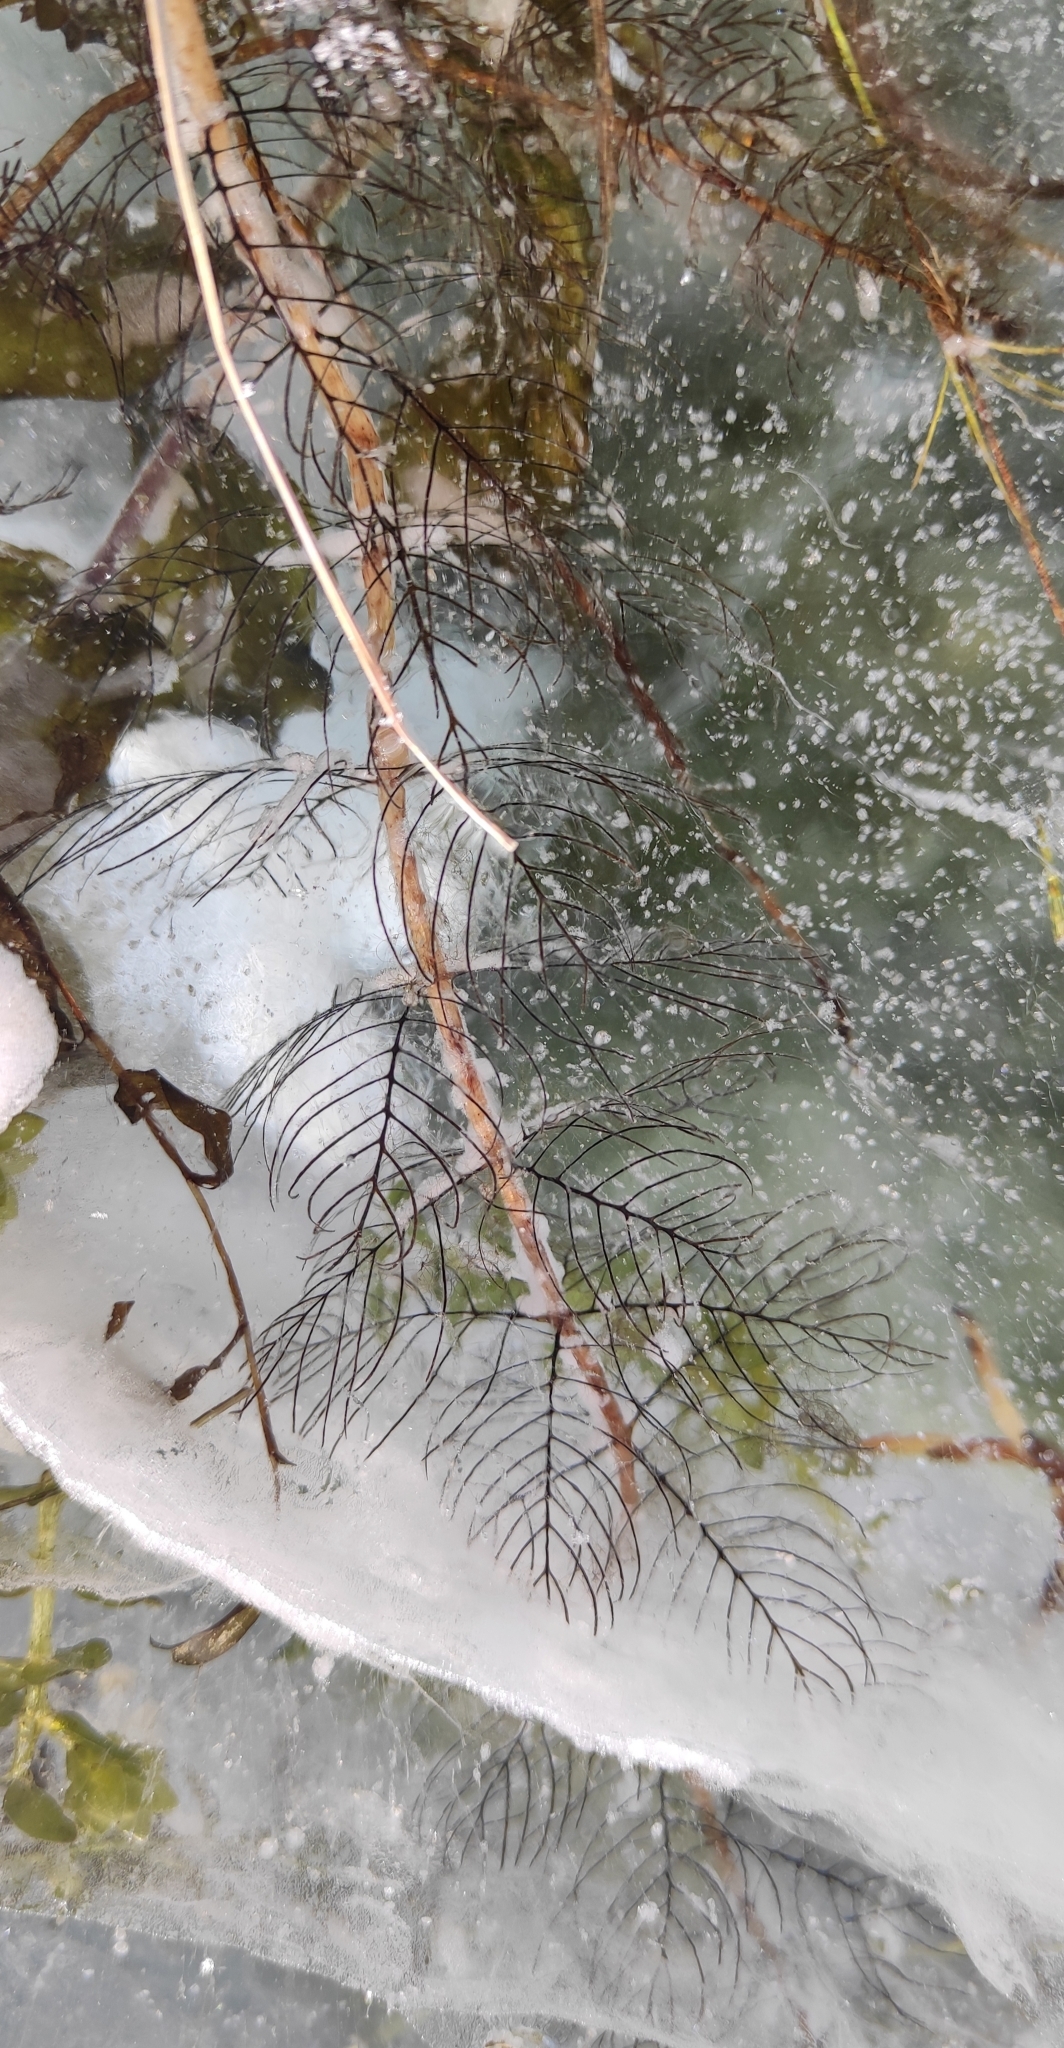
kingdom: Plantae
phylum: Tracheophyta
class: Magnoliopsida
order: Saxifragales
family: Haloragaceae
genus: Myriophyllum
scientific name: Myriophyllum sibiricum
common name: Siberian water-milfoil
